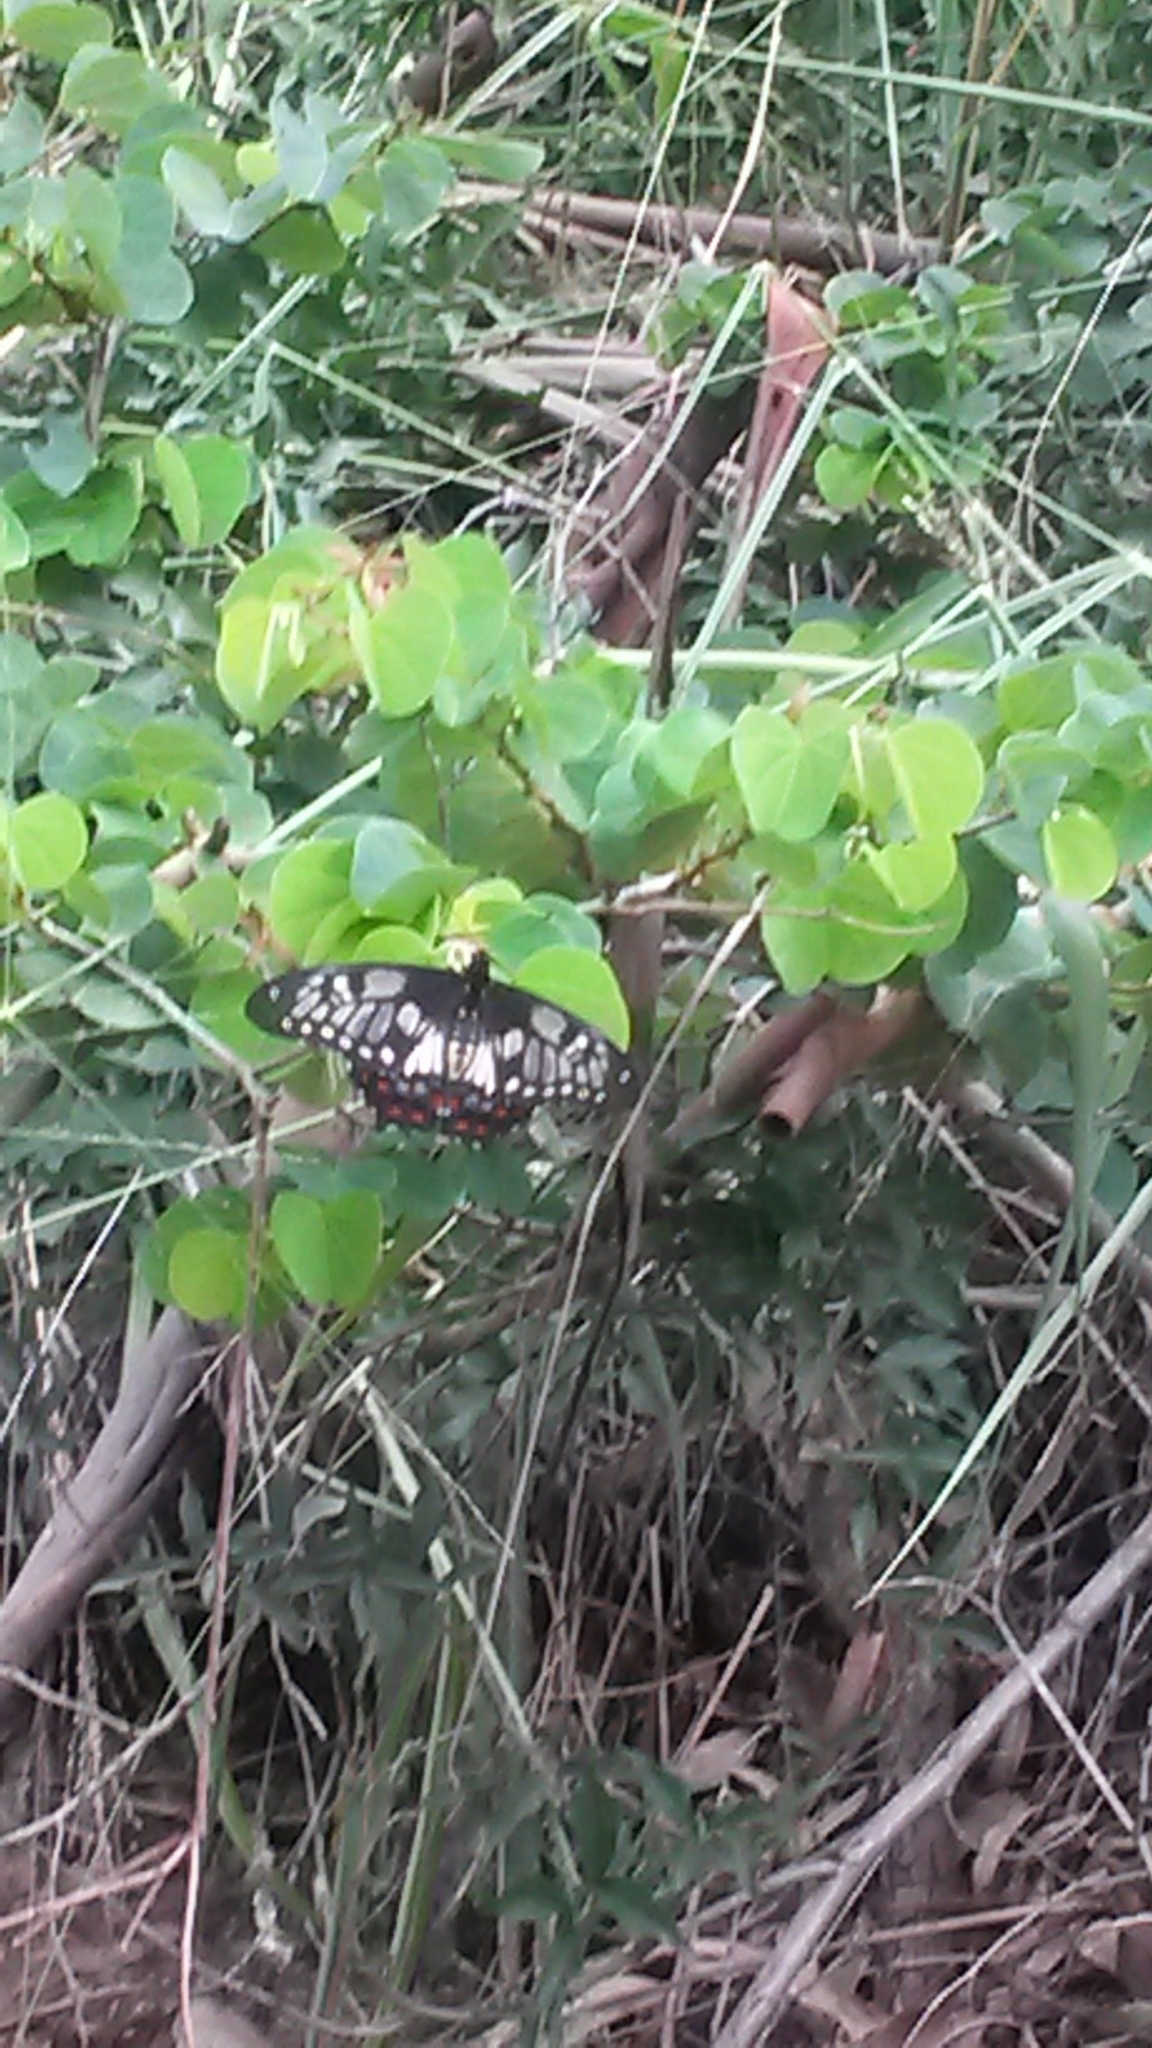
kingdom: Animalia
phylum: Arthropoda
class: Insecta
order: Lepidoptera
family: Papilionidae
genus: Papilio
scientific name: Papilio anactus
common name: Dingy swallowtail
